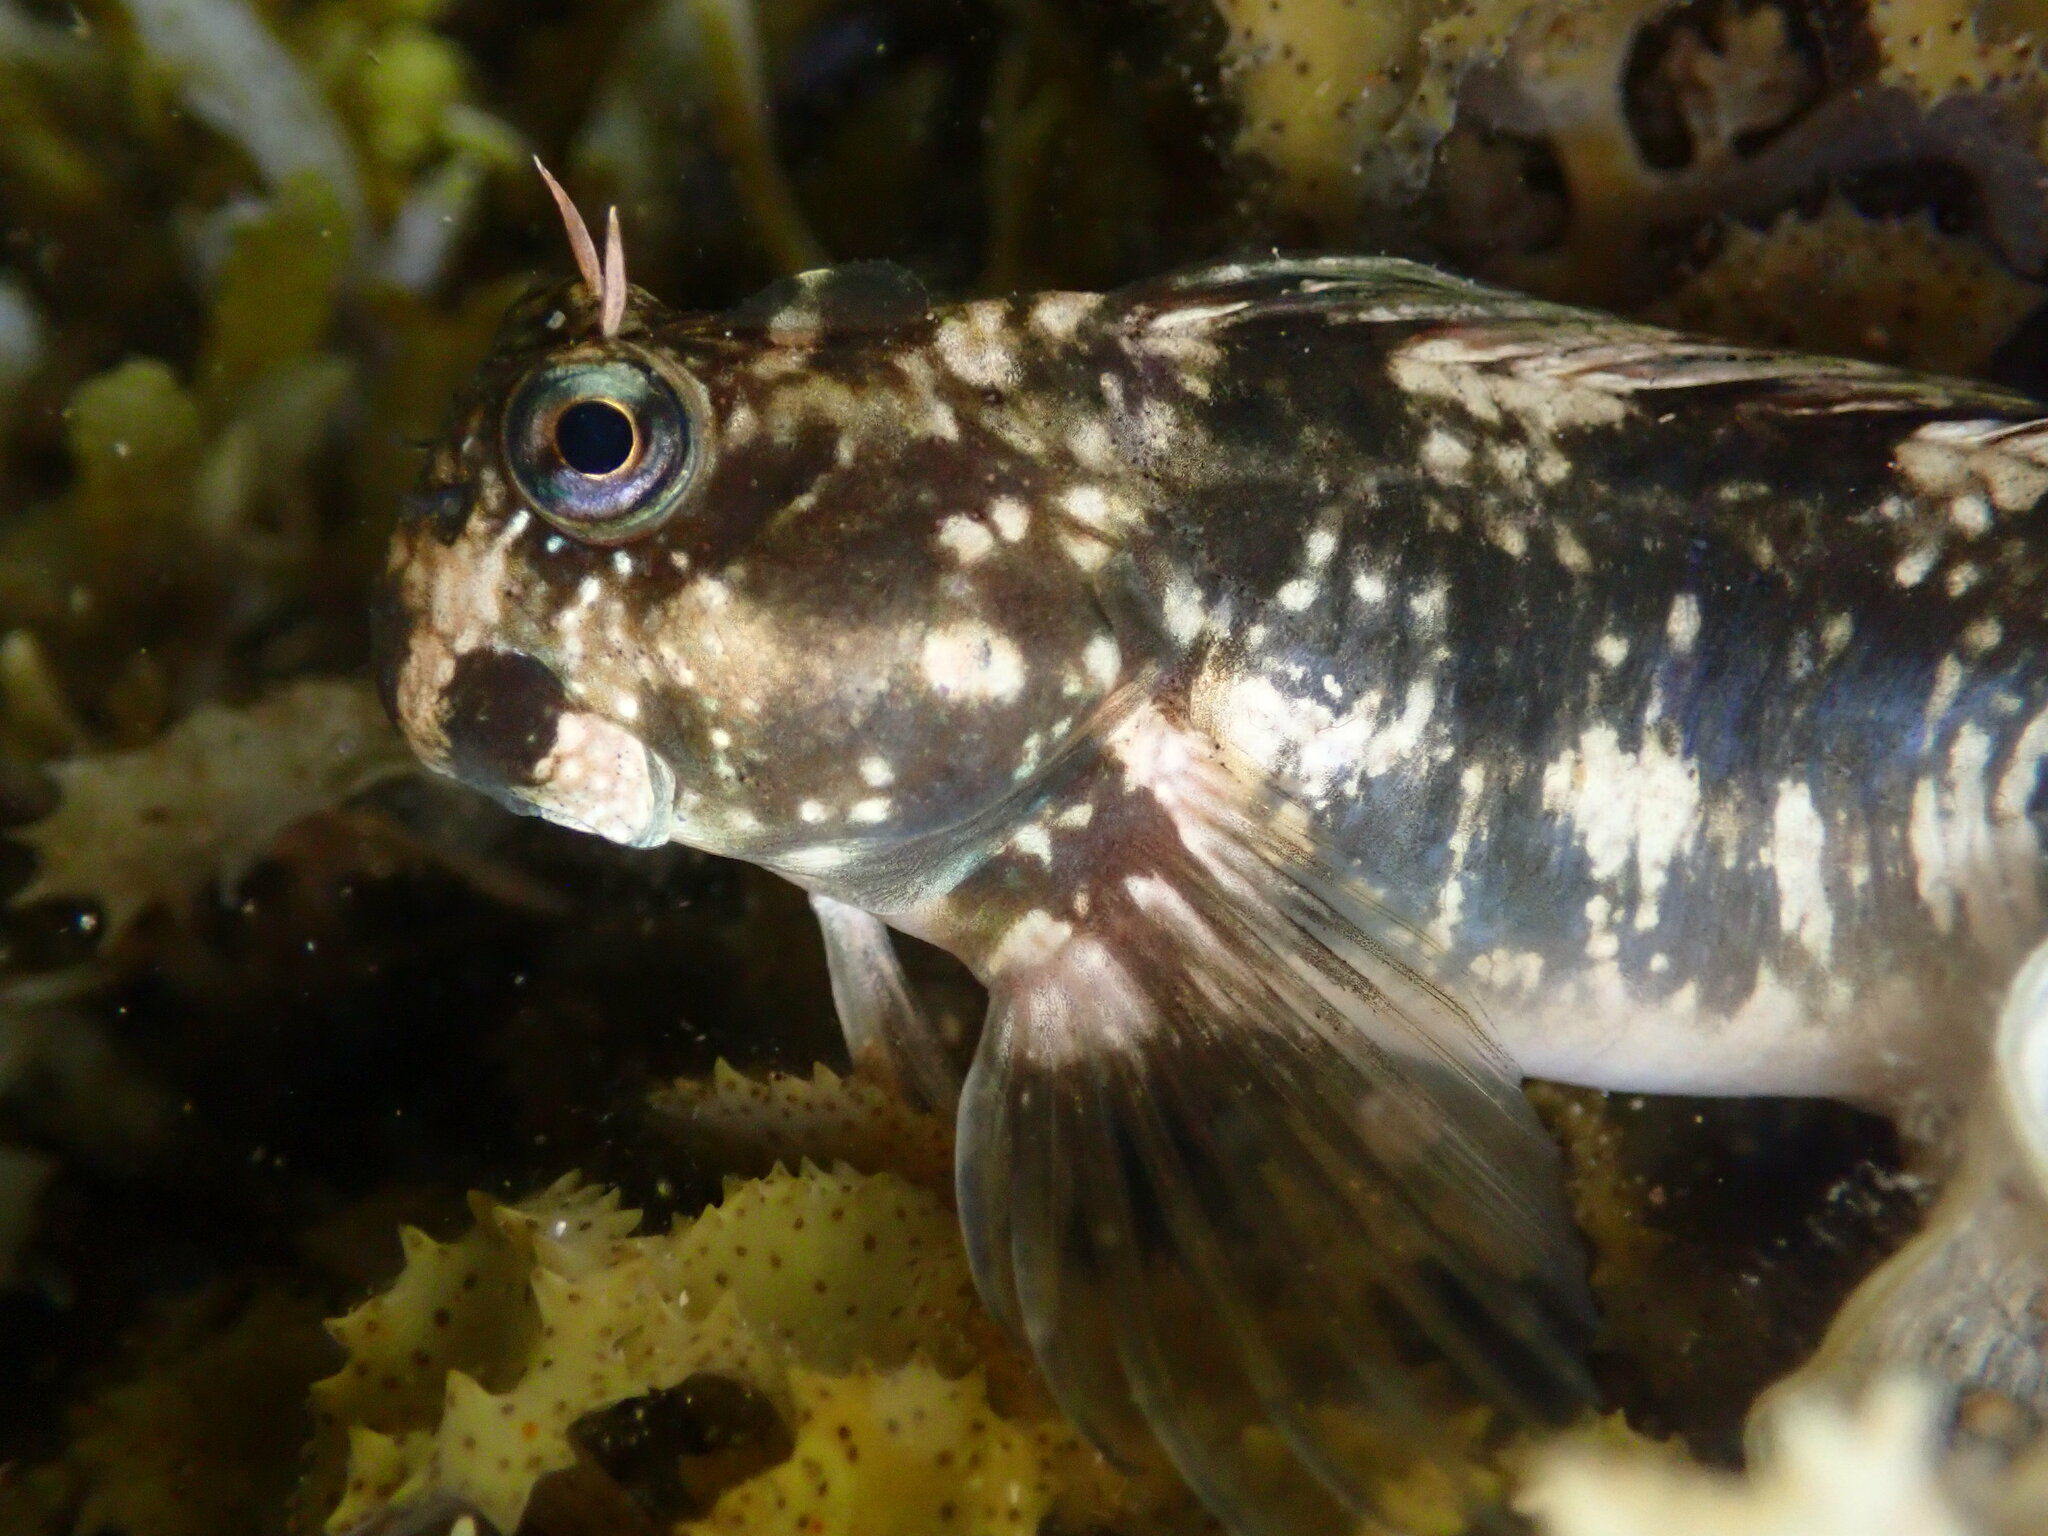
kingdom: Animalia
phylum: Chordata
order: Perciformes
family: Blenniidae
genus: Istiblennius
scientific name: Istiblennius zebra
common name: Zebra blenny
